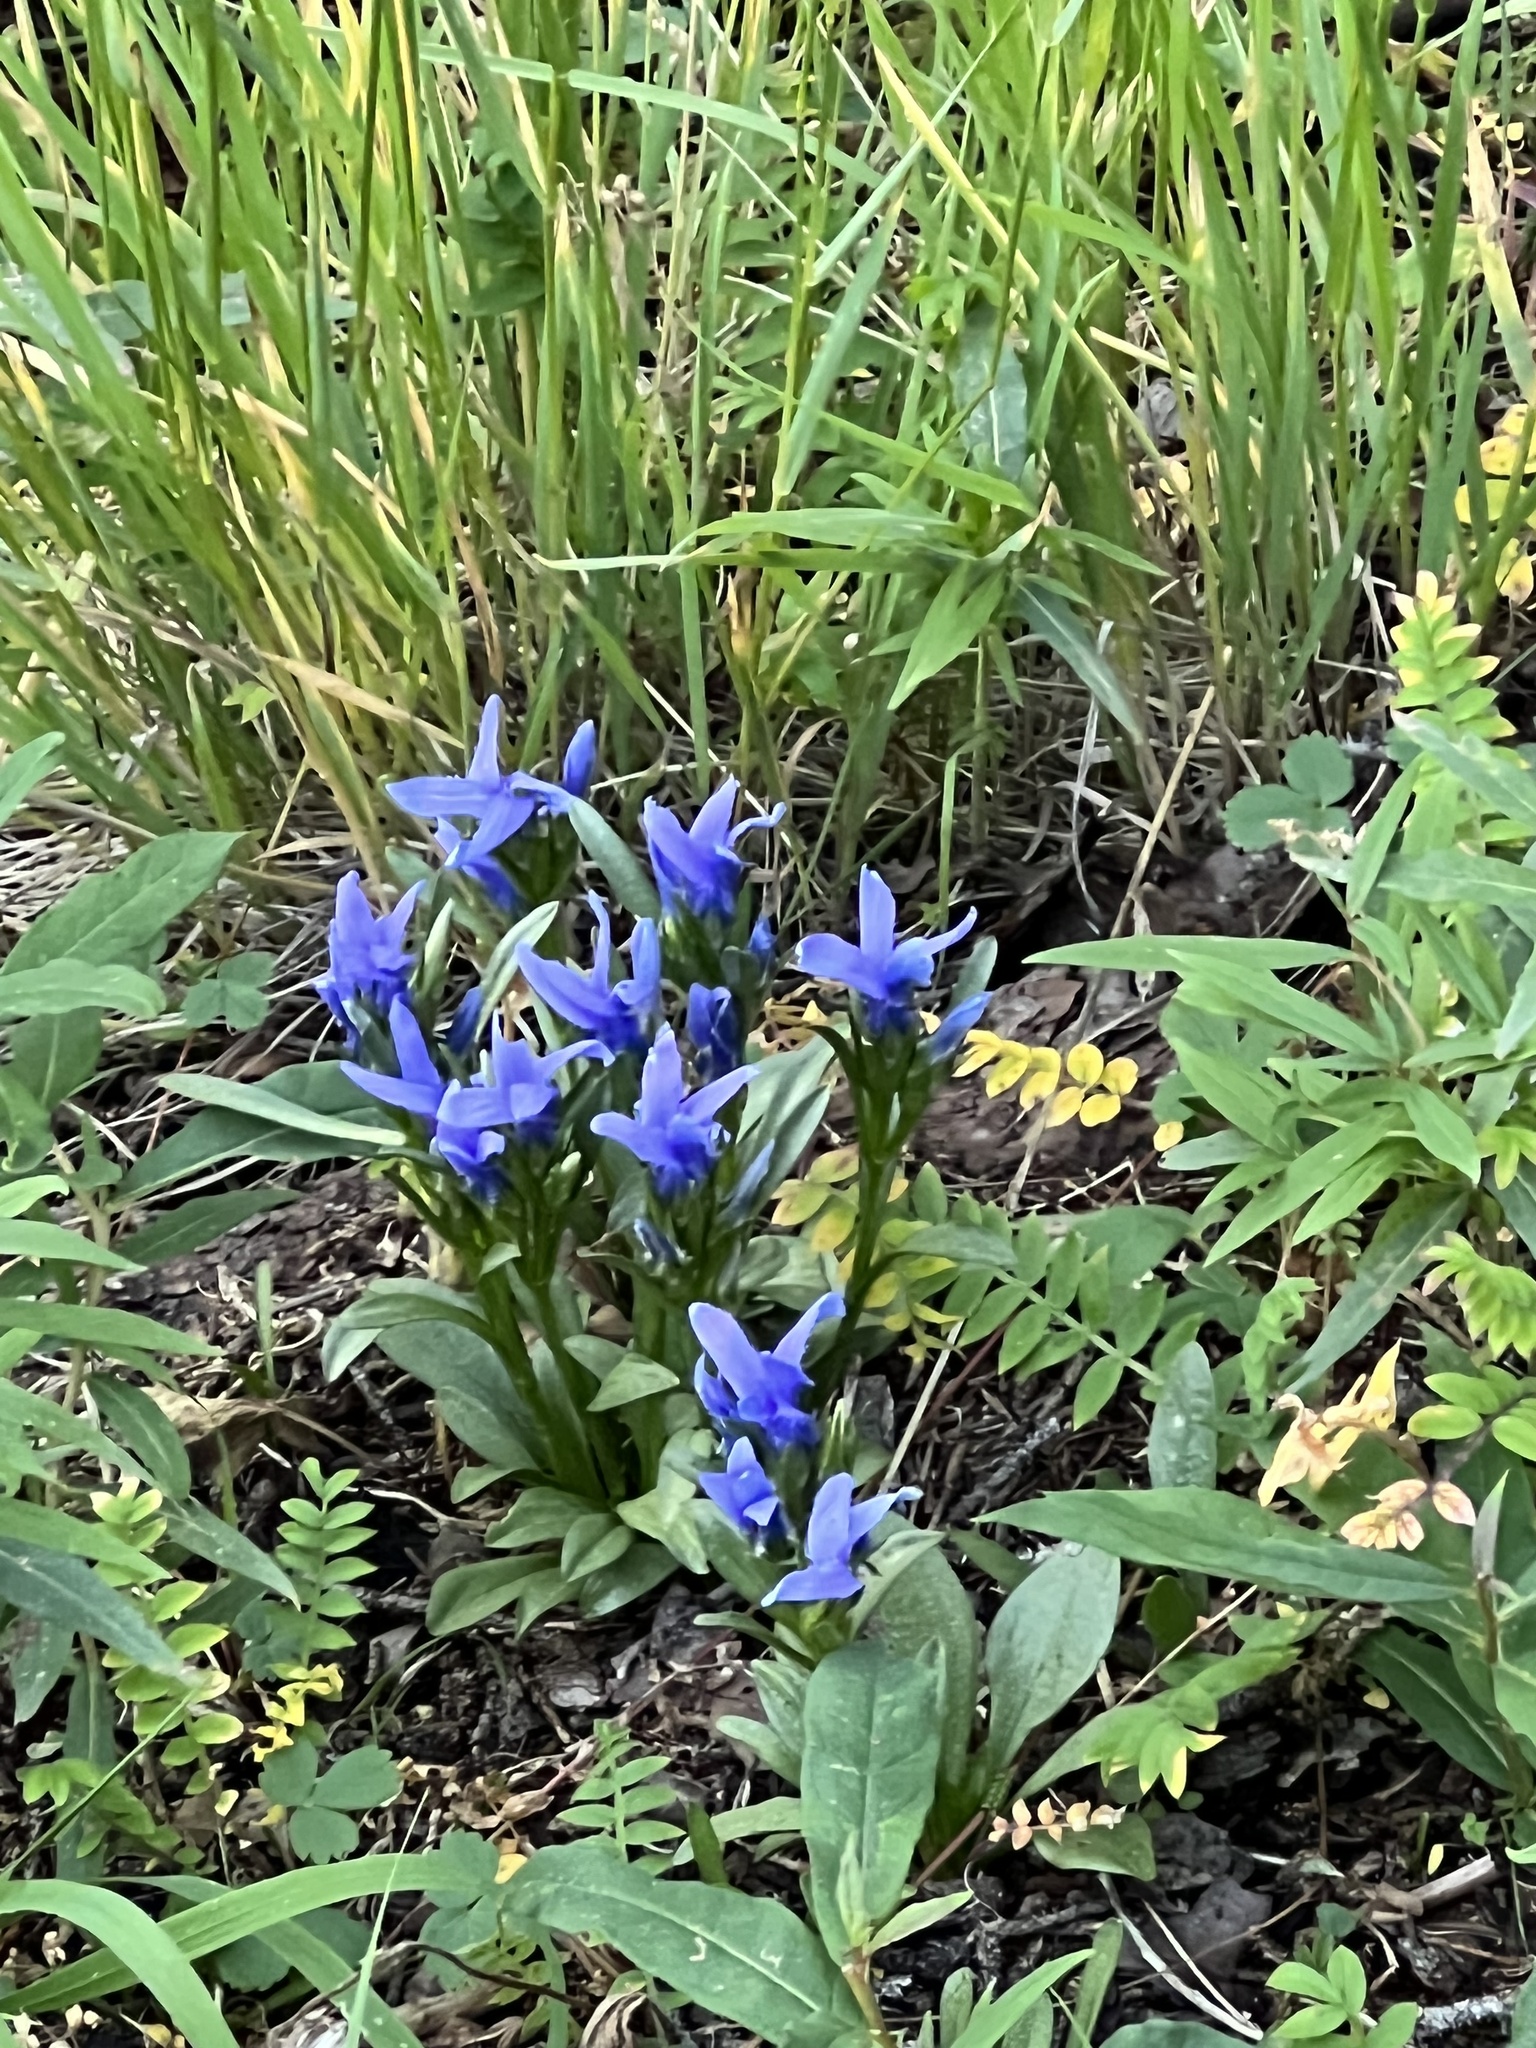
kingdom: Plantae
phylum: Tracheophyta
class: Magnoliopsida
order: Gentianales
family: Gentianaceae
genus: Gentianopsis
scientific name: Gentianopsis barbellata
